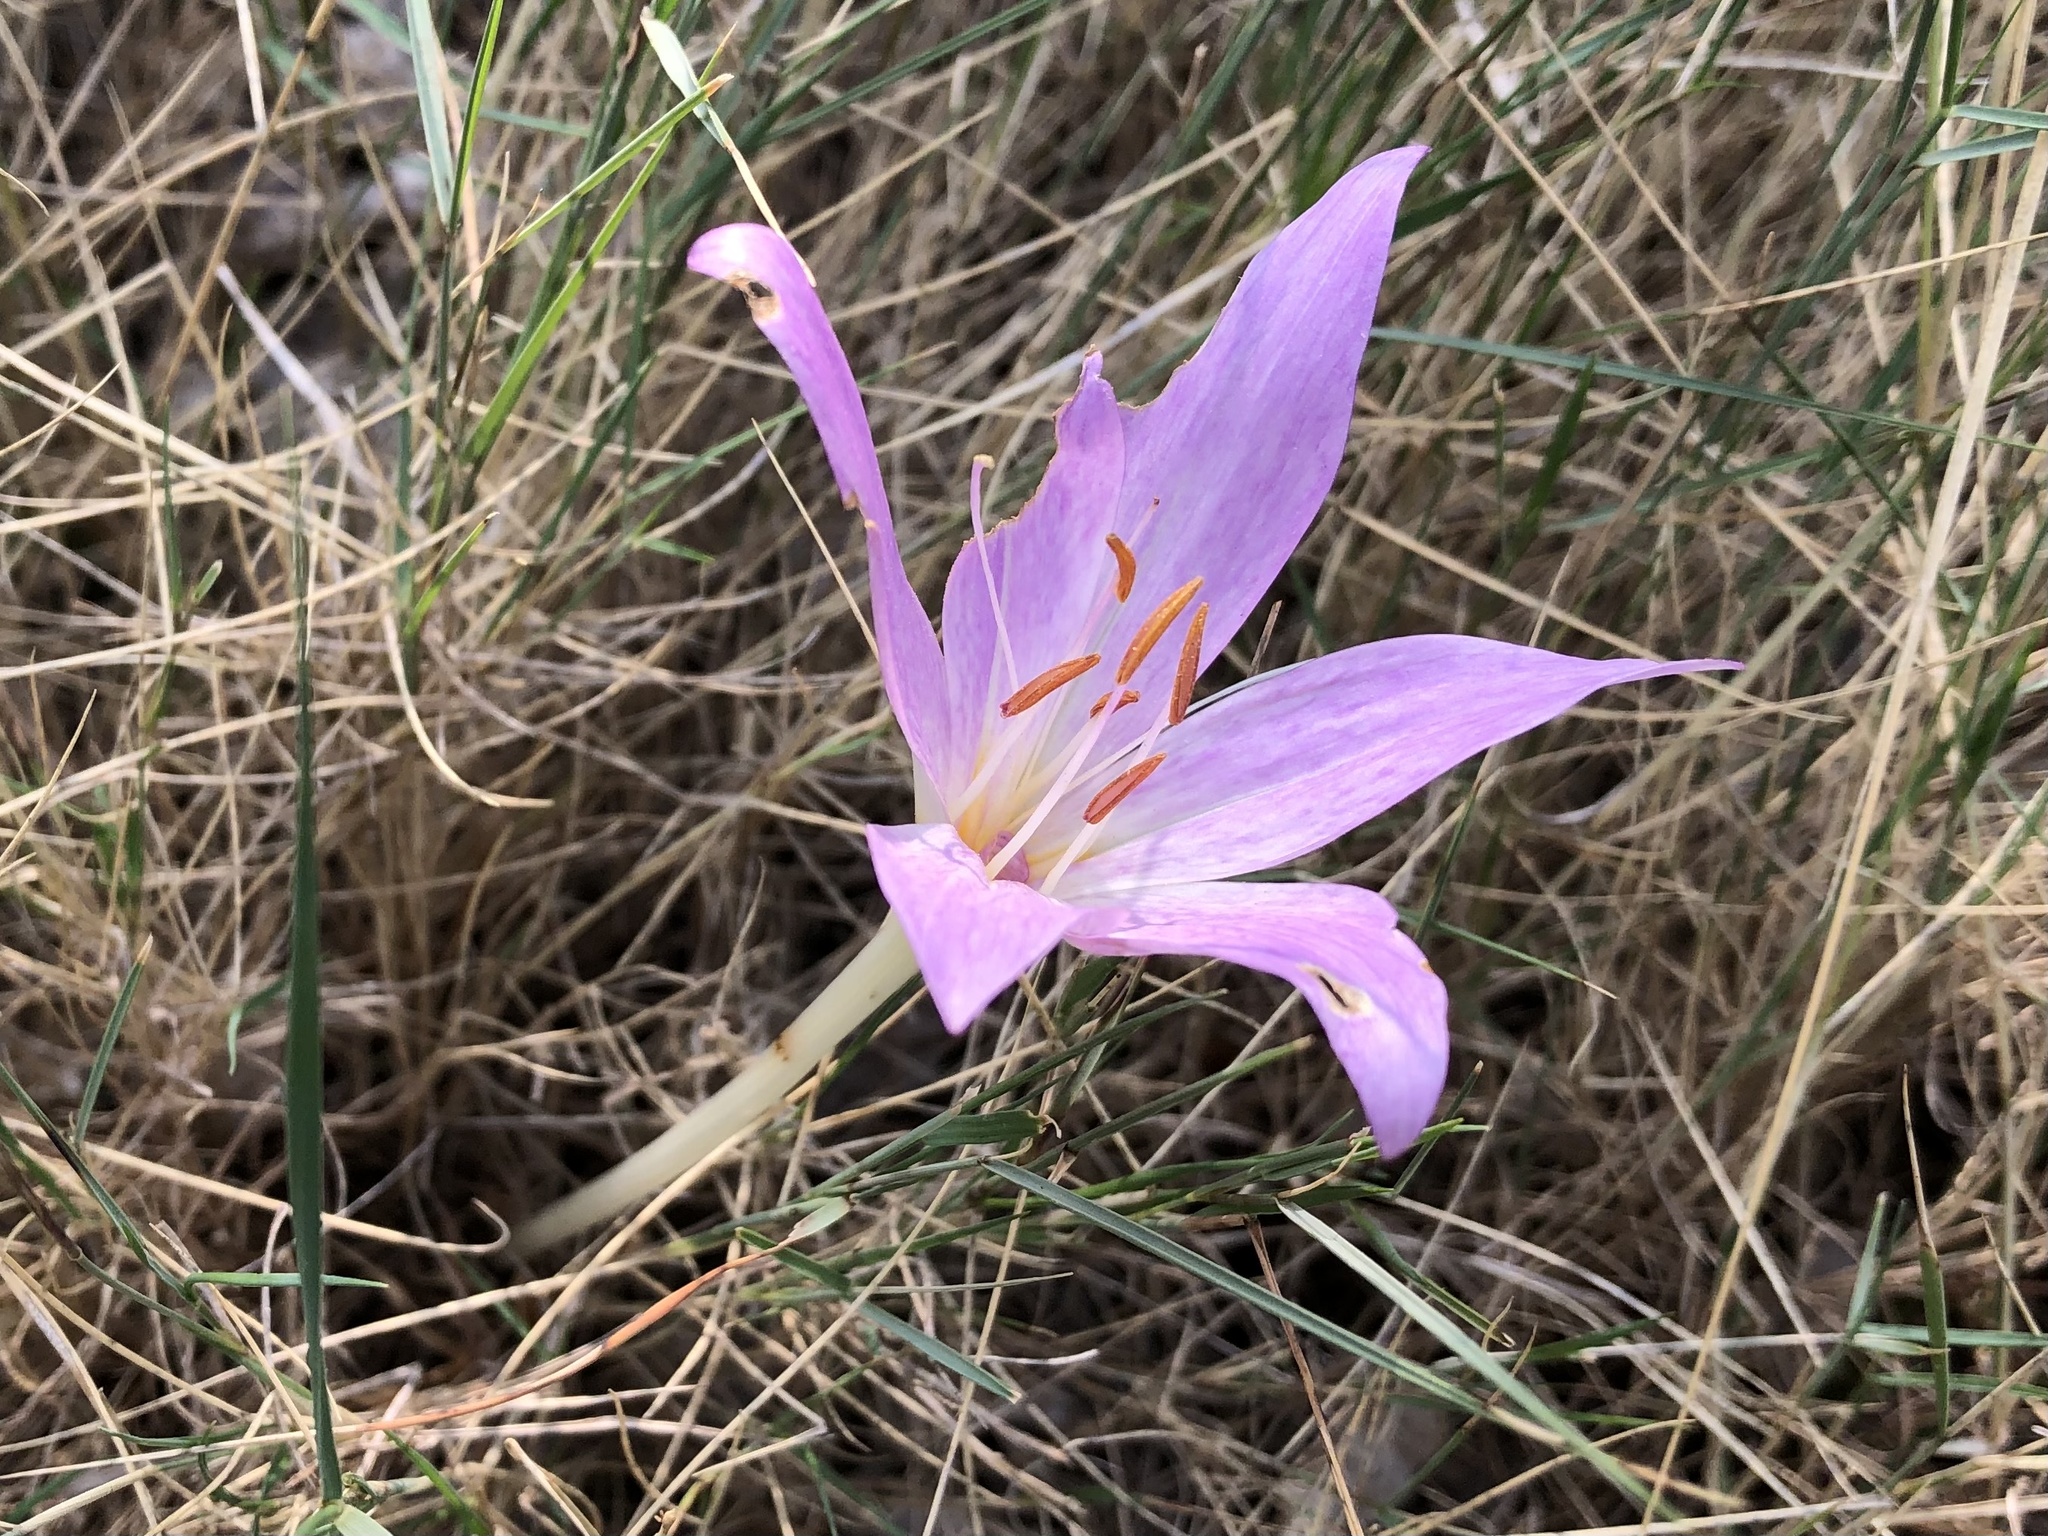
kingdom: Plantae
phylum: Tracheophyta
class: Liliopsida
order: Liliales
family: Colchicaceae
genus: Colchicum
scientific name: Colchicum haynaldii
